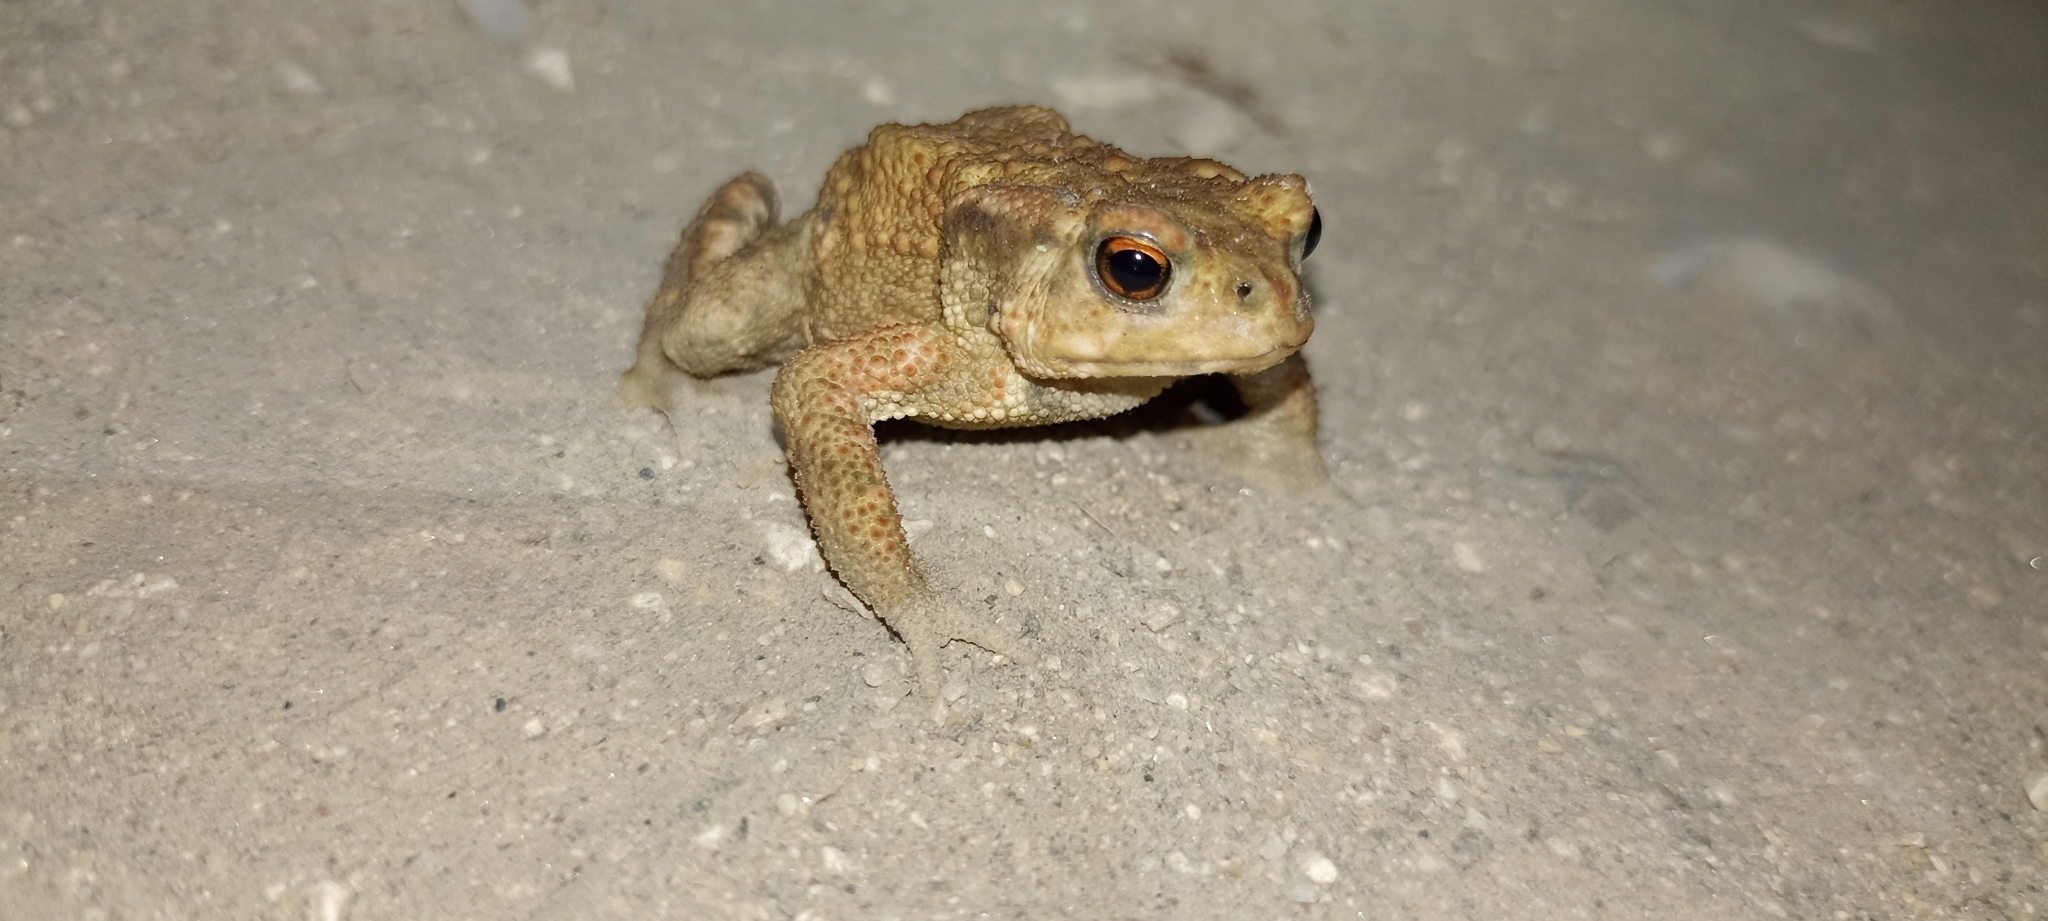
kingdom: Animalia
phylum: Chordata
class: Amphibia
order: Anura
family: Bufonidae
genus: Bufo
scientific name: Bufo spinosus
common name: Western common toad
